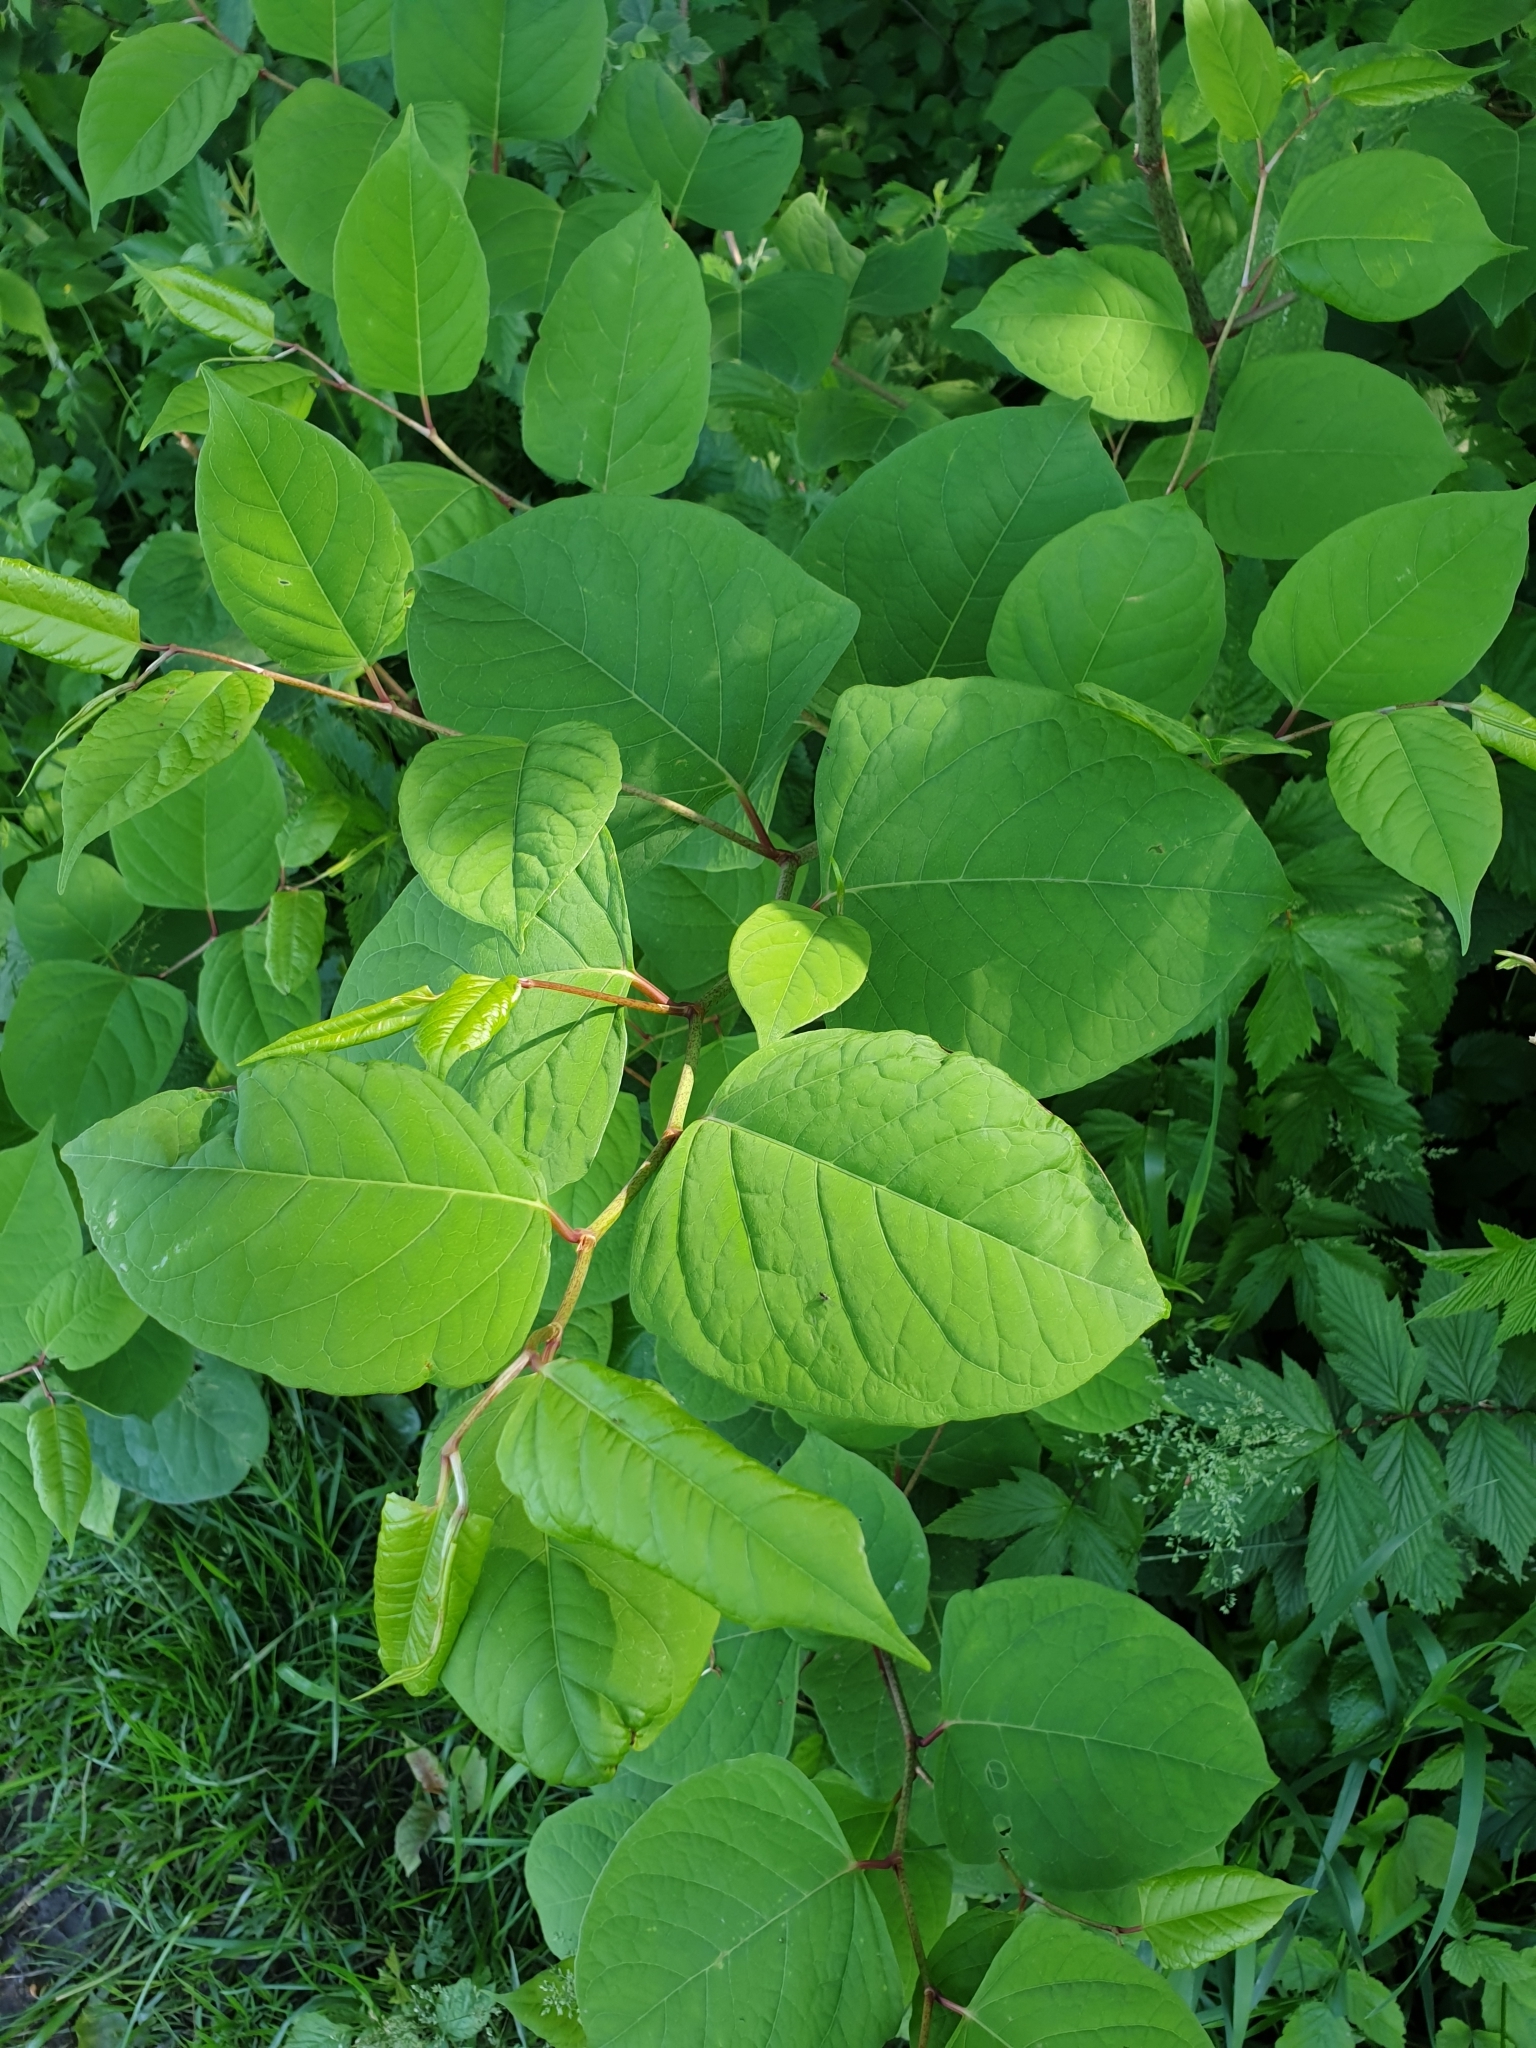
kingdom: Plantae
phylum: Tracheophyta
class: Magnoliopsida
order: Caryophyllales
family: Polygonaceae
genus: Reynoutria
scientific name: Reynoutria japonica
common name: Japanese knotweed
